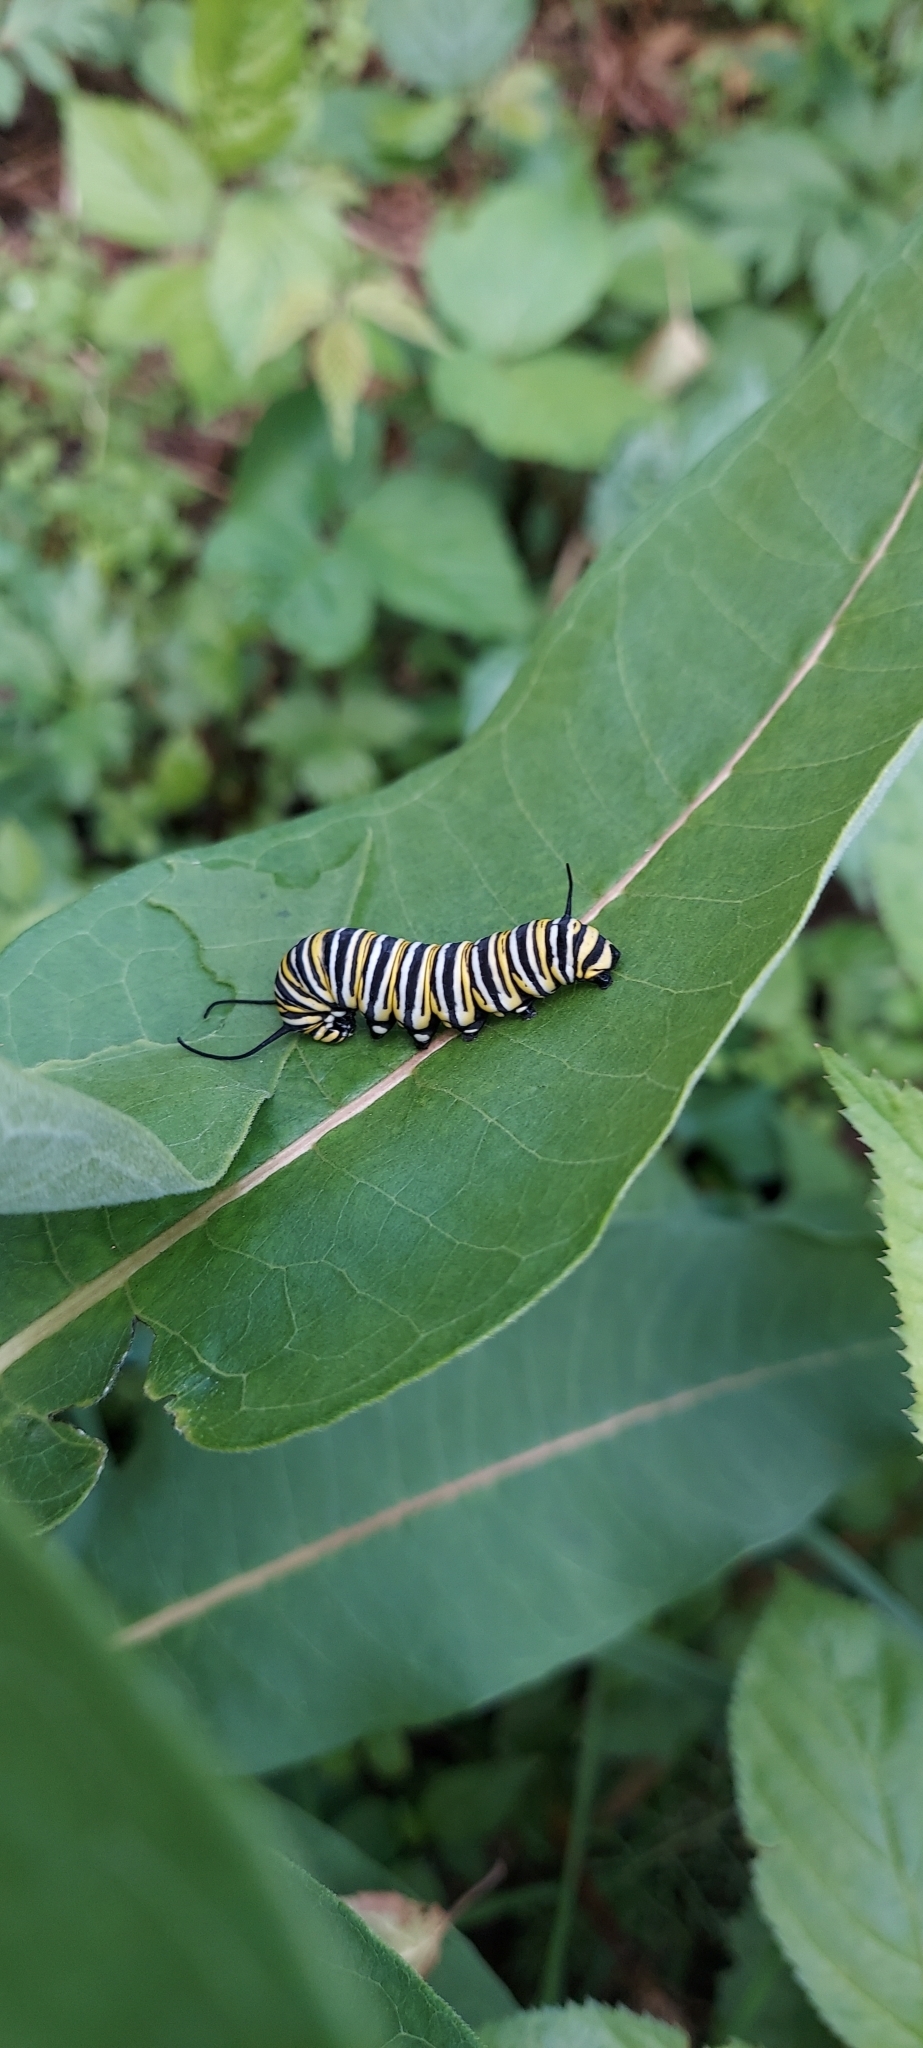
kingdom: Animalia
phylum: Arthropoda
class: Insecta
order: Lepidoptera
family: Nymphalidae
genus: Danaus
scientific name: Danaus plexippus
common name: Monarch
